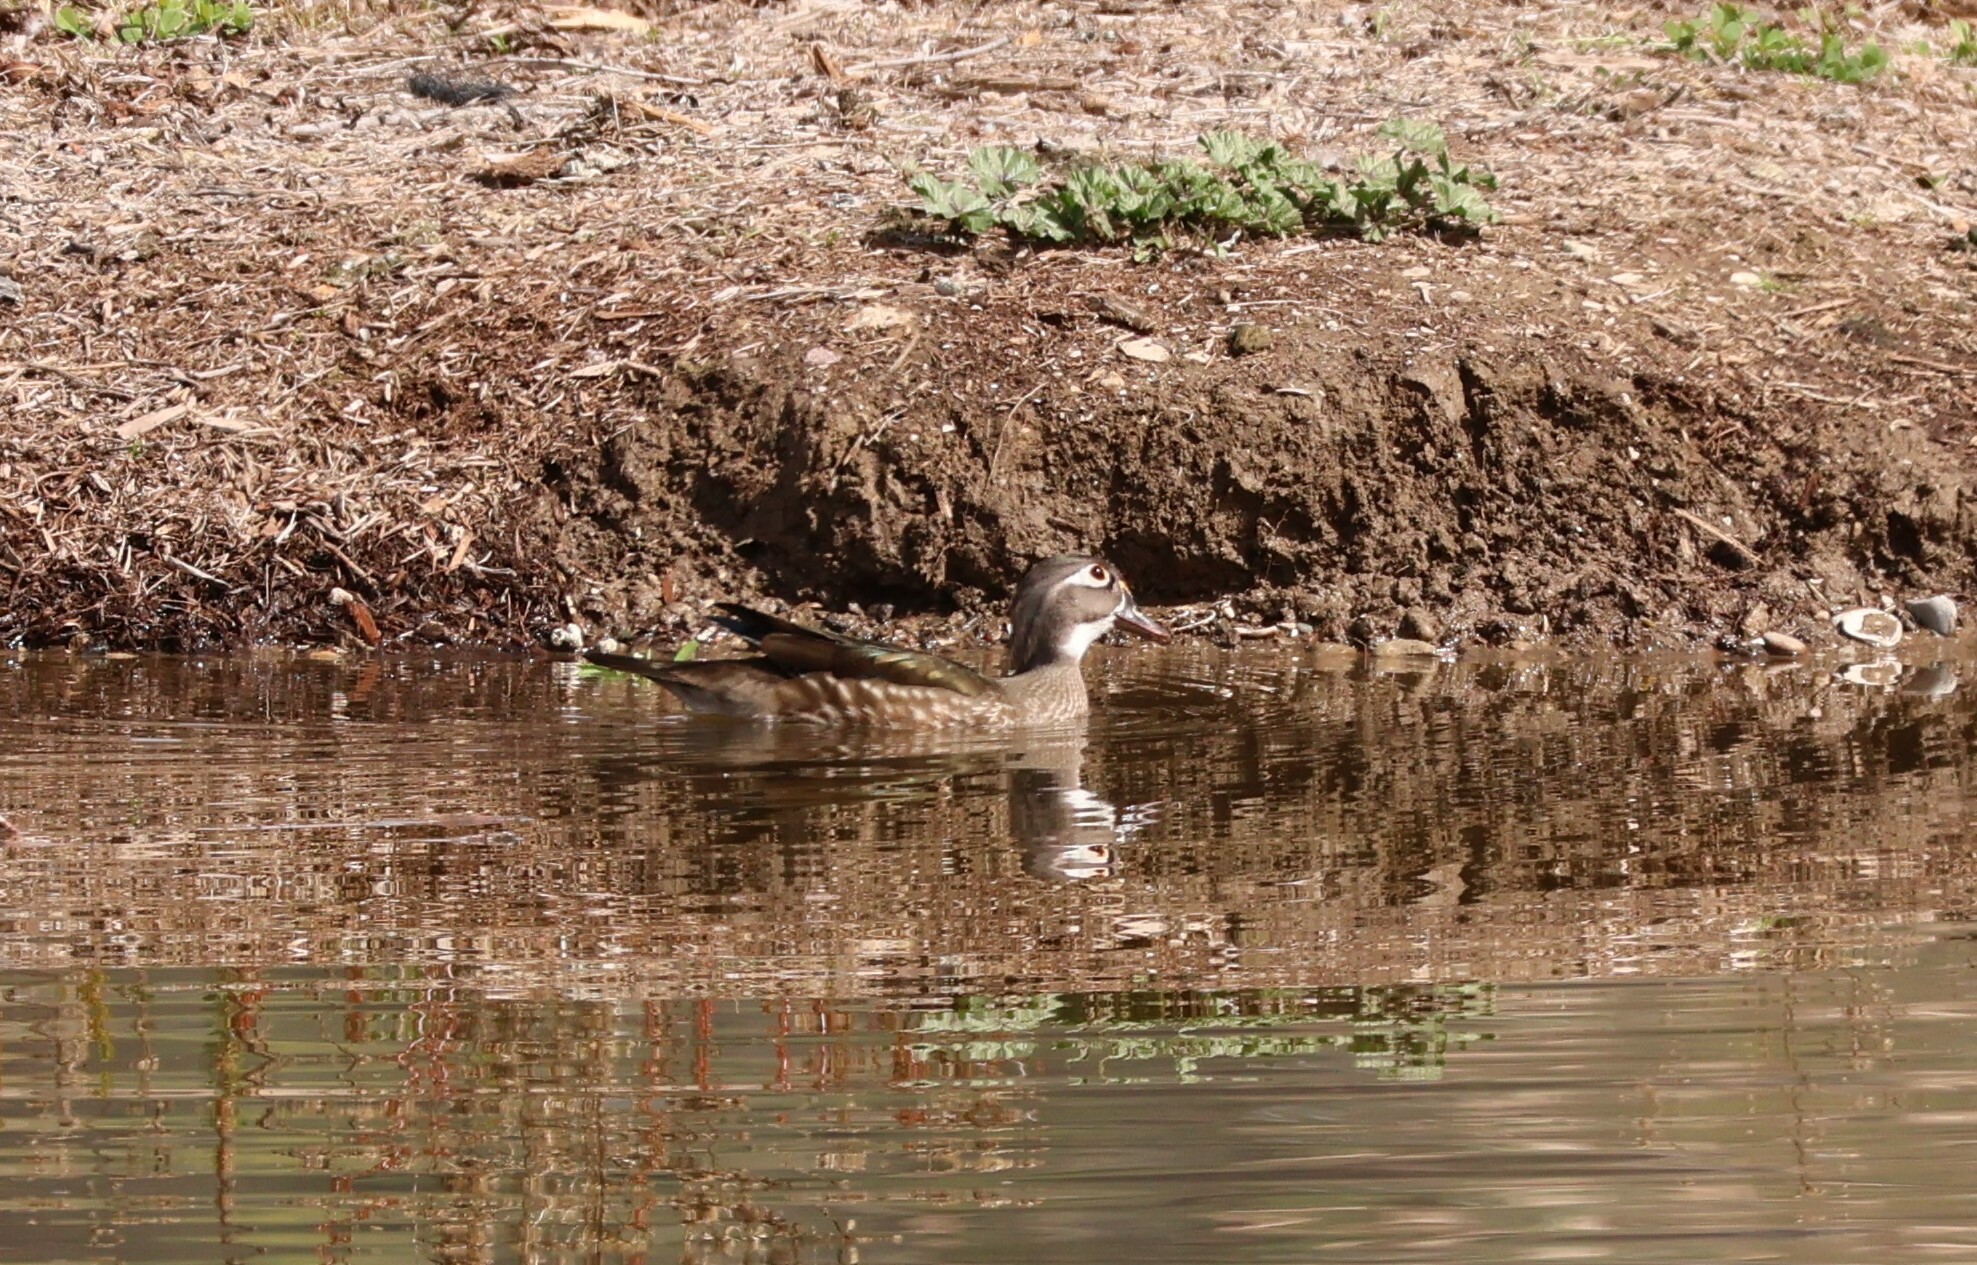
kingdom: Animalia
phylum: Chordata
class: Aves
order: Anseriformes
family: Anatidae
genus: Aix
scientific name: Aix sponsa
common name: Wood duck
